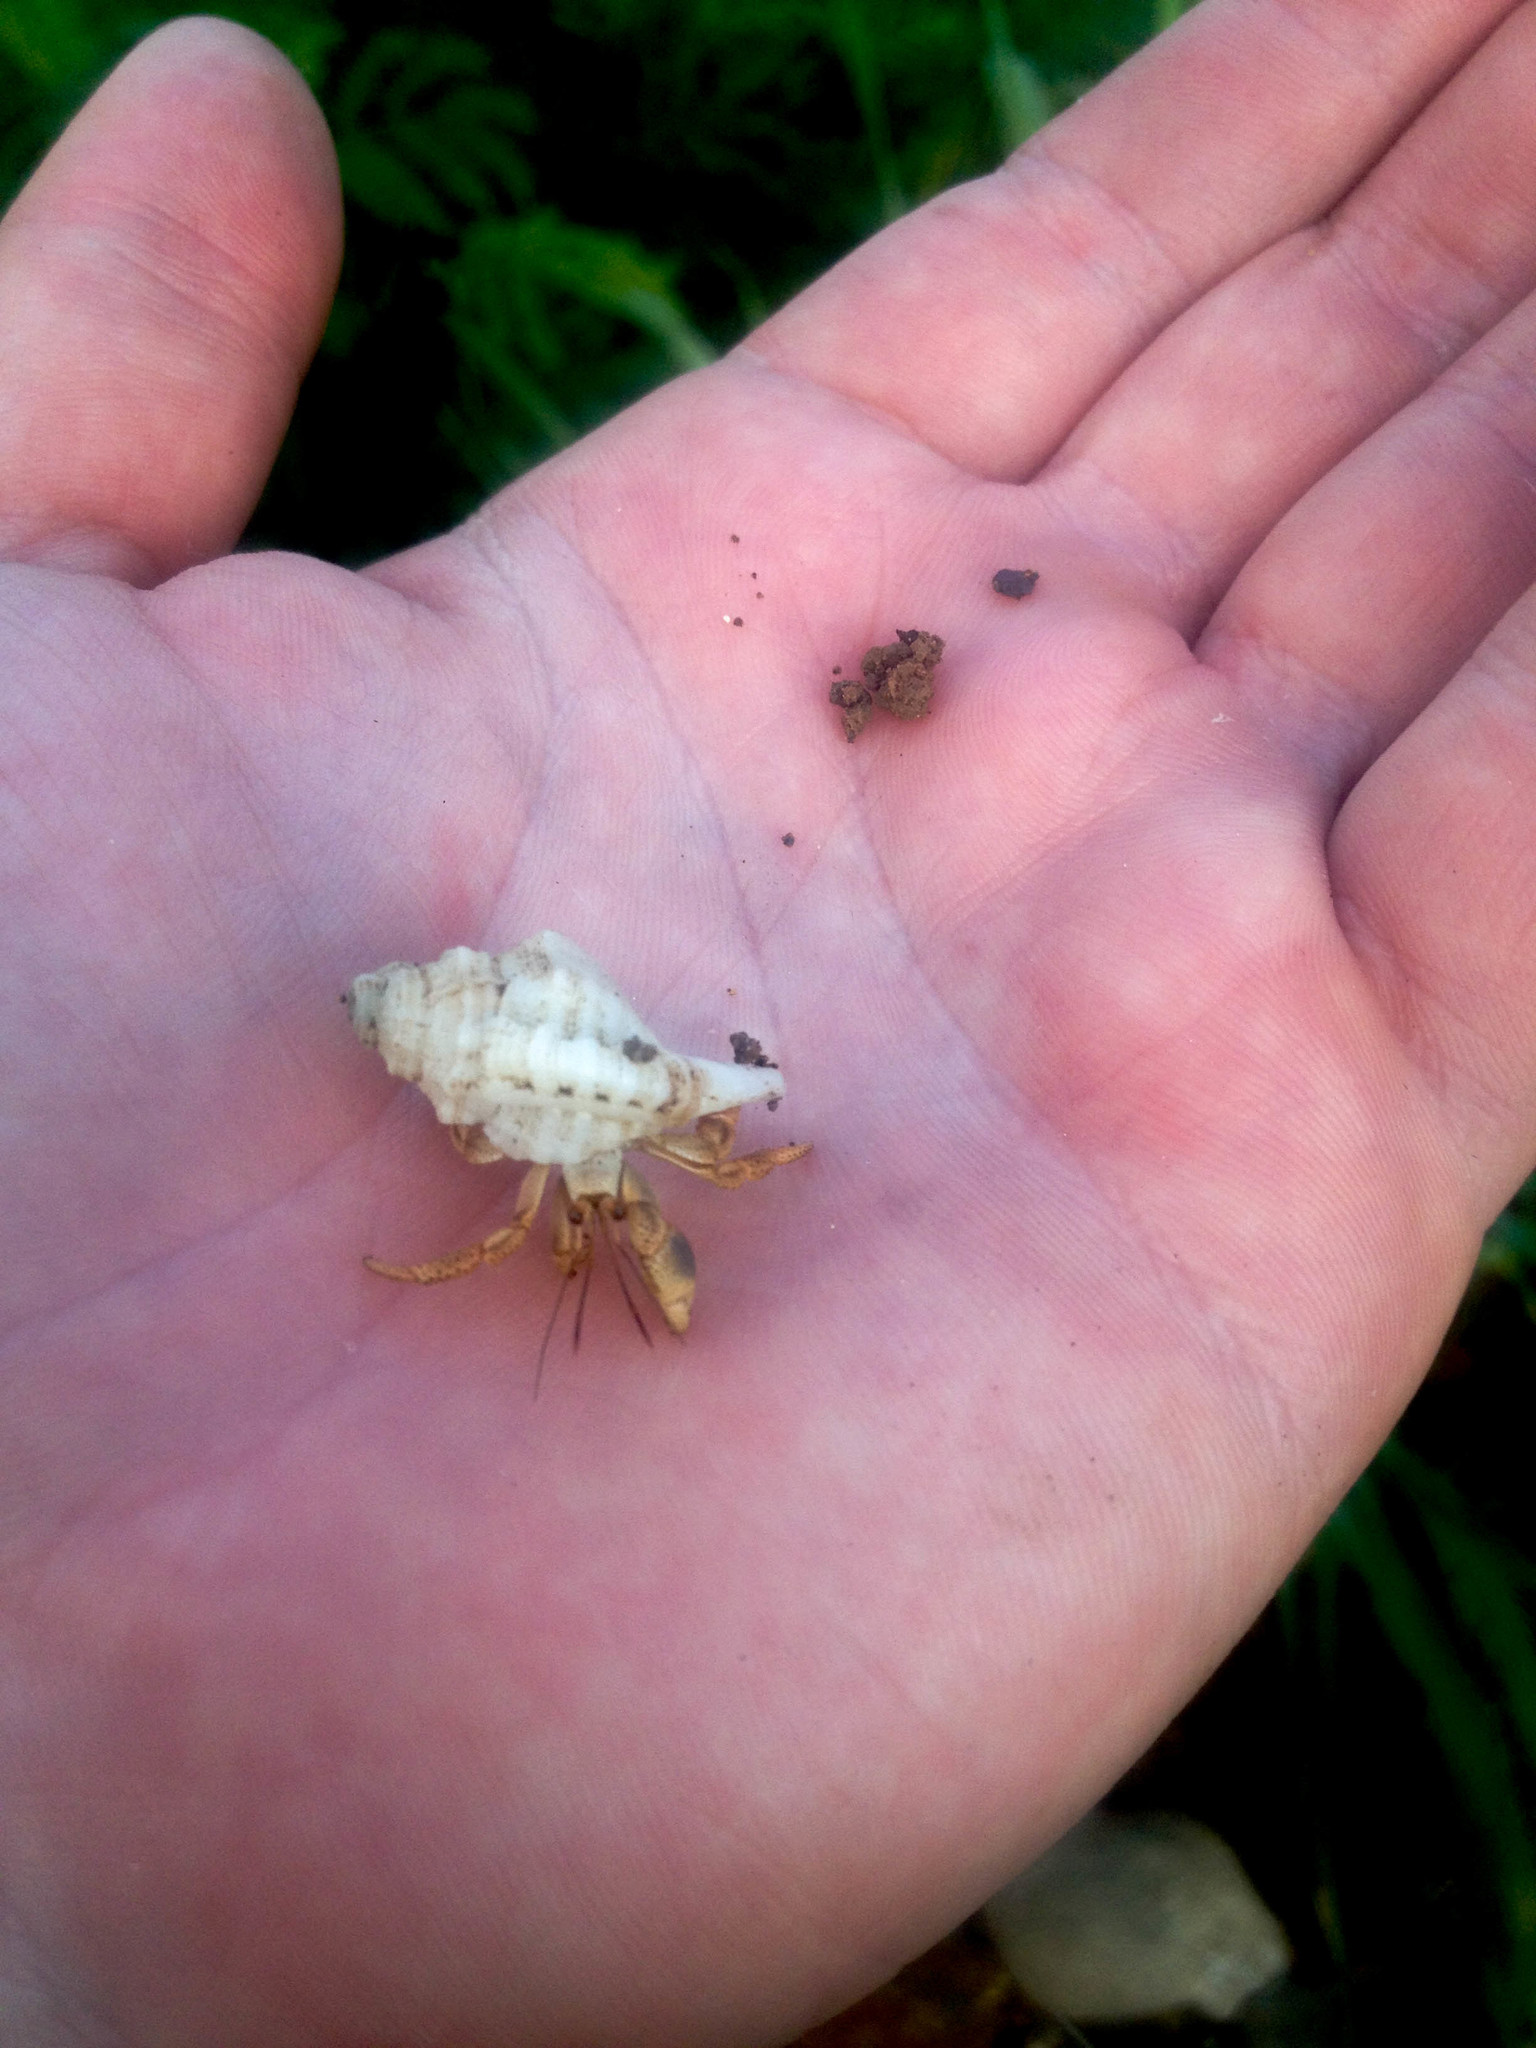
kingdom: Animalia
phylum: Arthropoda
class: Malacostraca
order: Decapoda
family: Coenobitidae
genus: Coenobita
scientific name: Coenobita clypeatus
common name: Caribbean hermit crab
